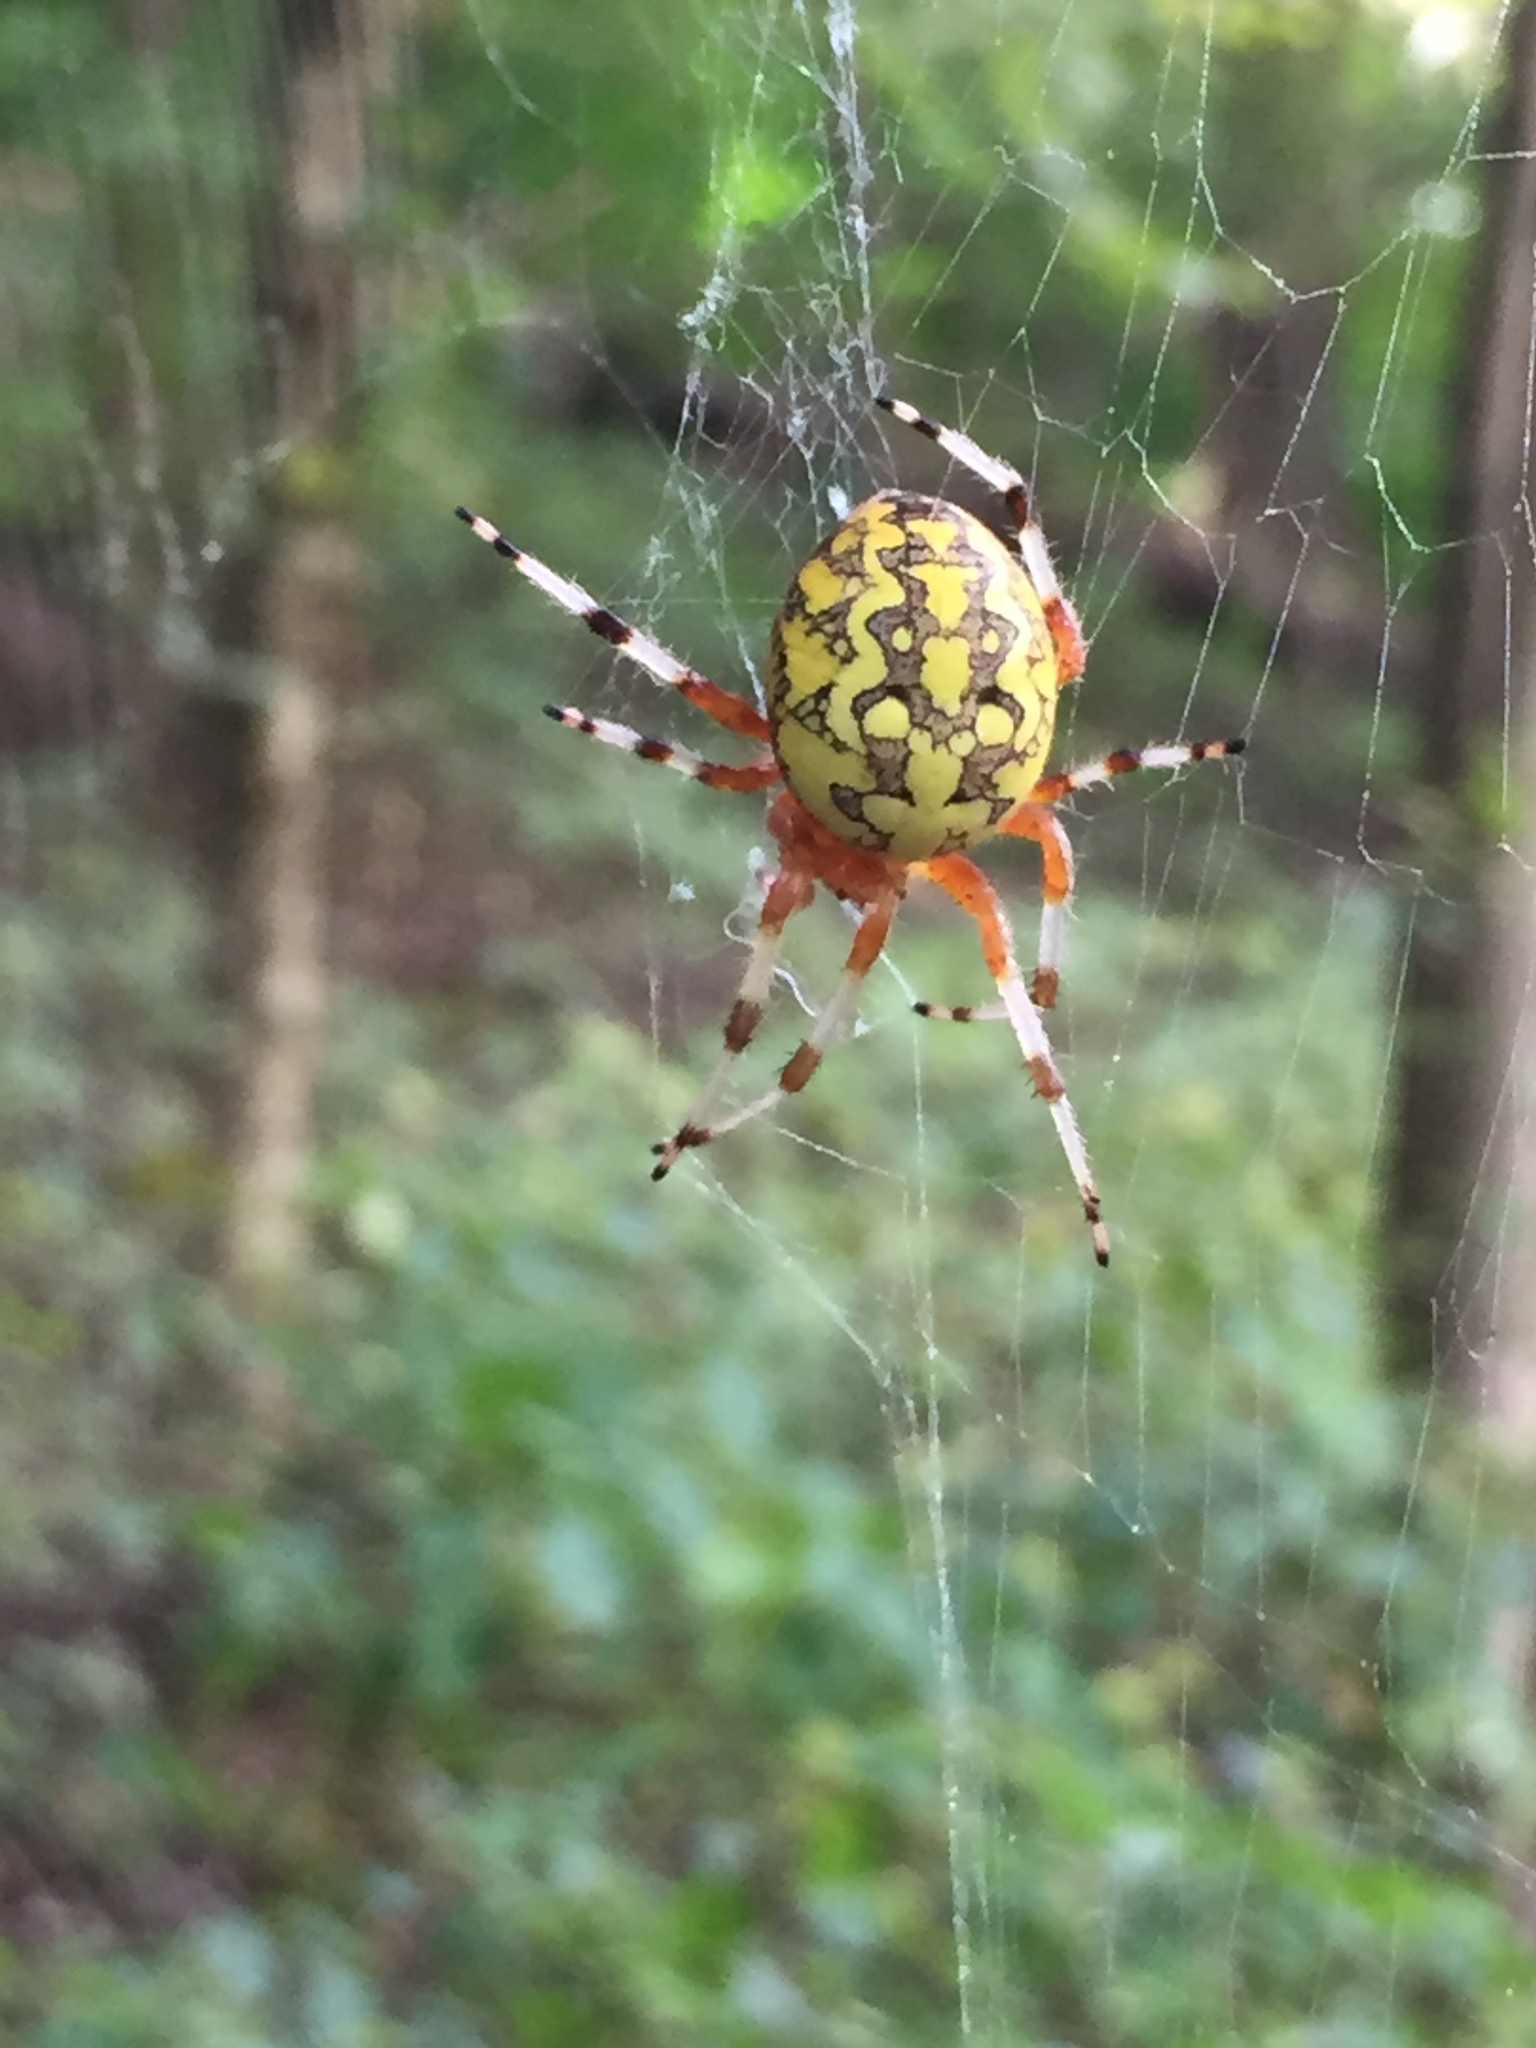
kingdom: Animalia
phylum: Arthropoda
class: Arachnida
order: Araneae
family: Araneidae
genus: Araneus
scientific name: Araneus marmoreus
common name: Marbled orbweaver
